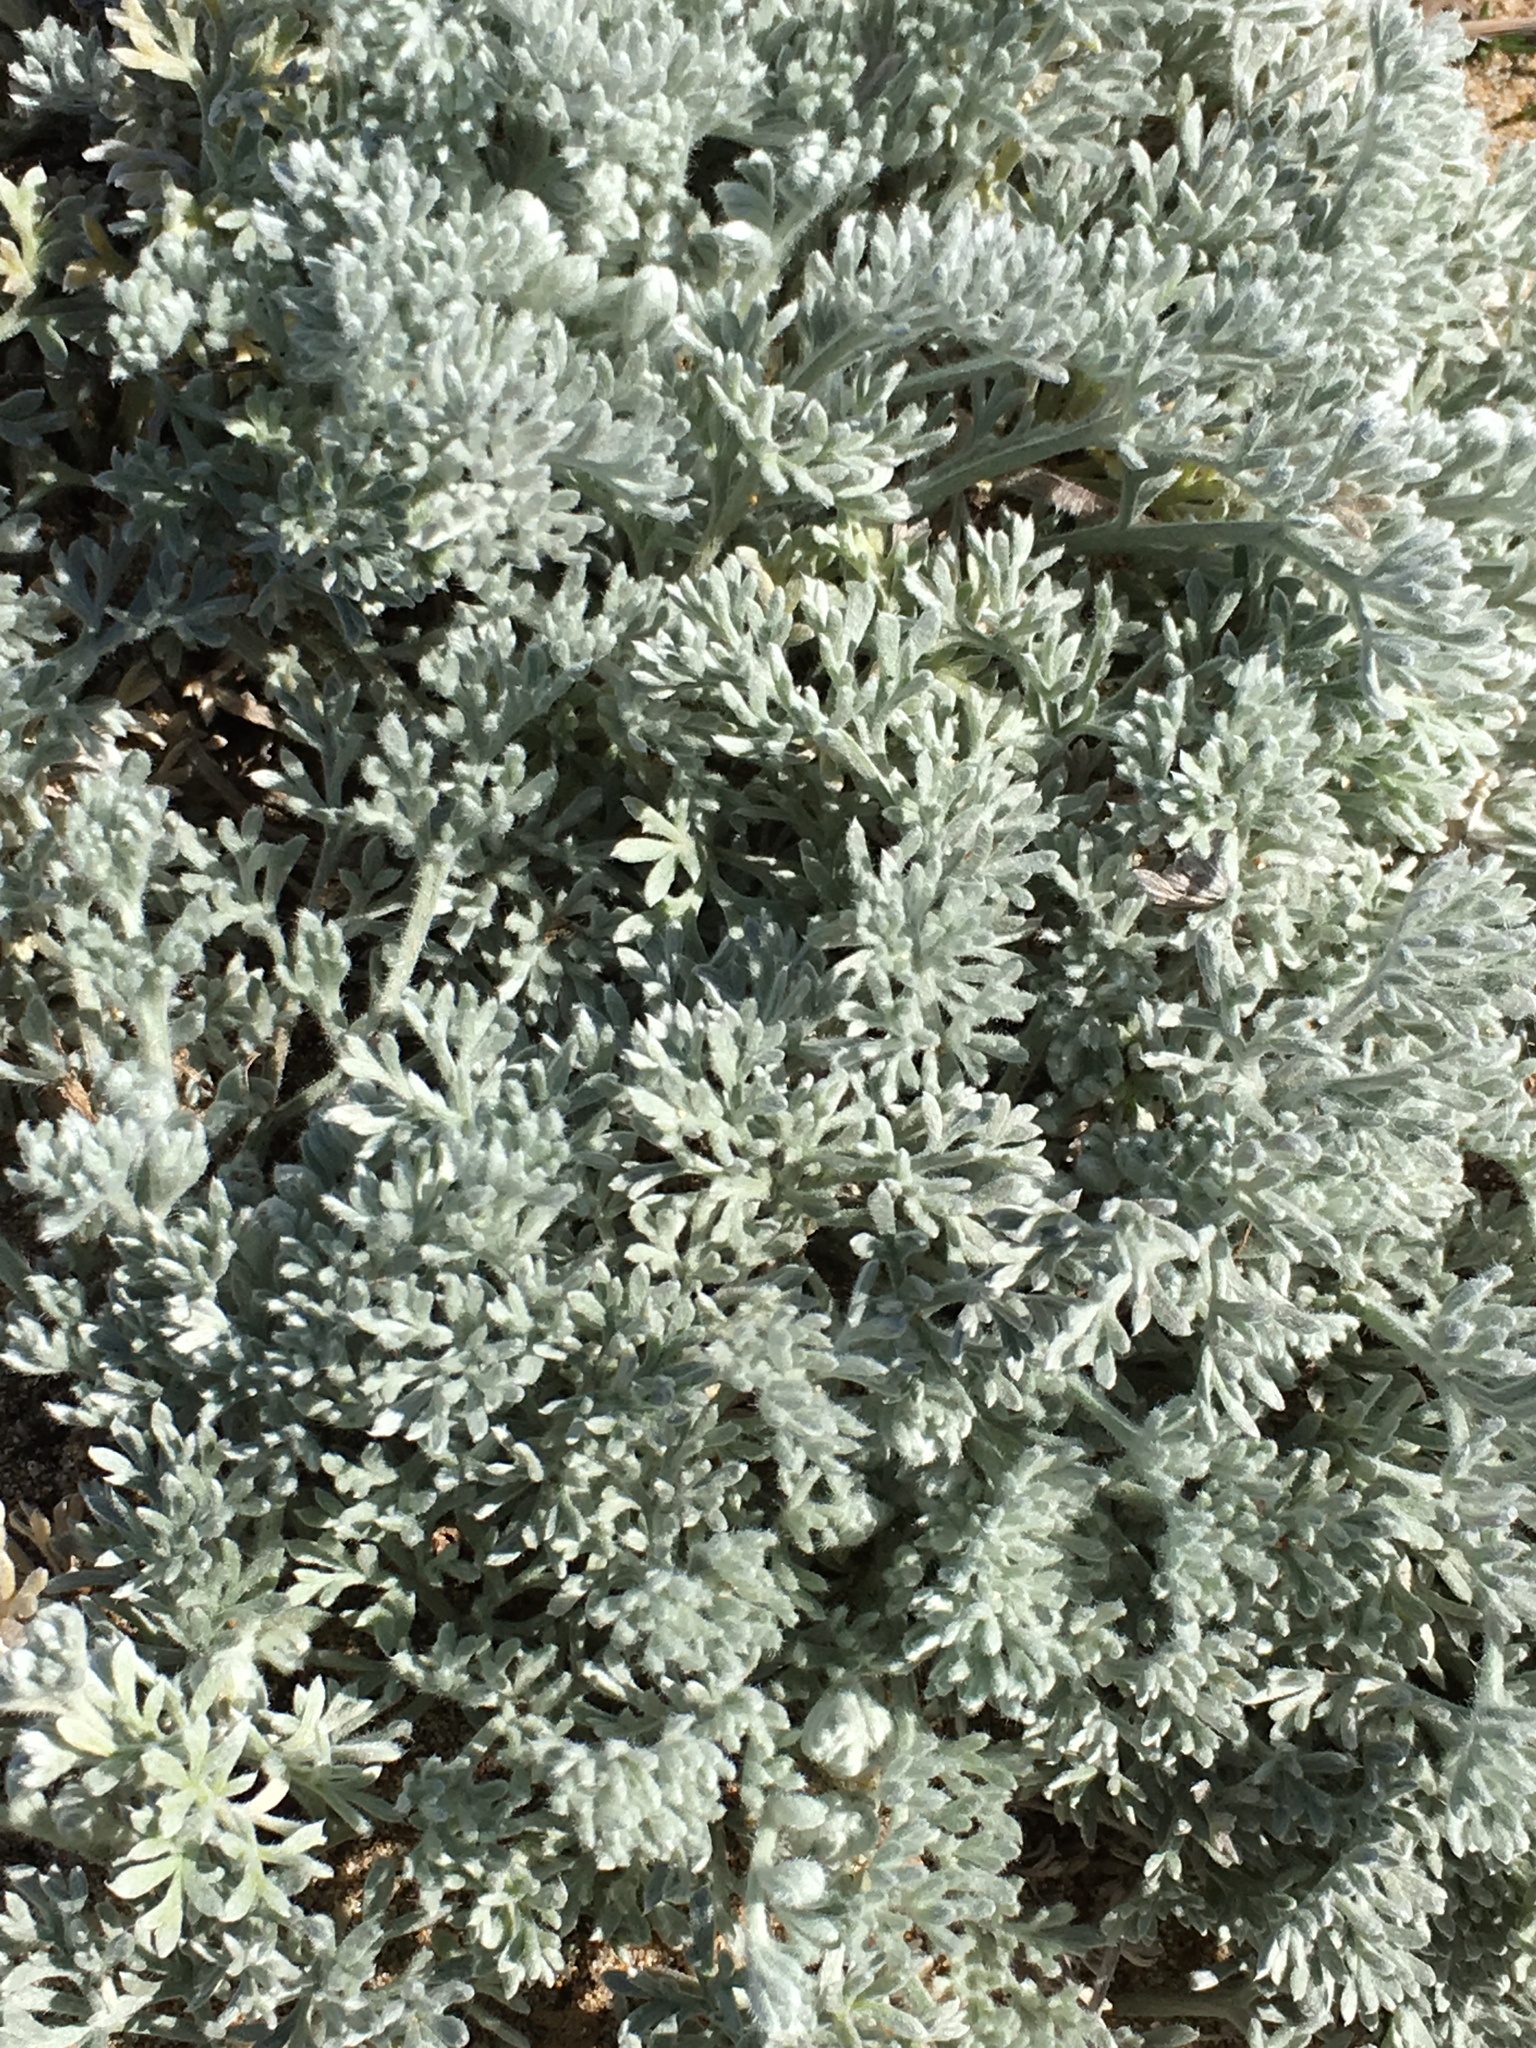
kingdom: Plantae
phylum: Tracheophyta
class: Magnoliopsida
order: Asterales
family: Asteraceae
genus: Artemisia
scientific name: Artemisia pycnocephala
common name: Coastal sagewort
